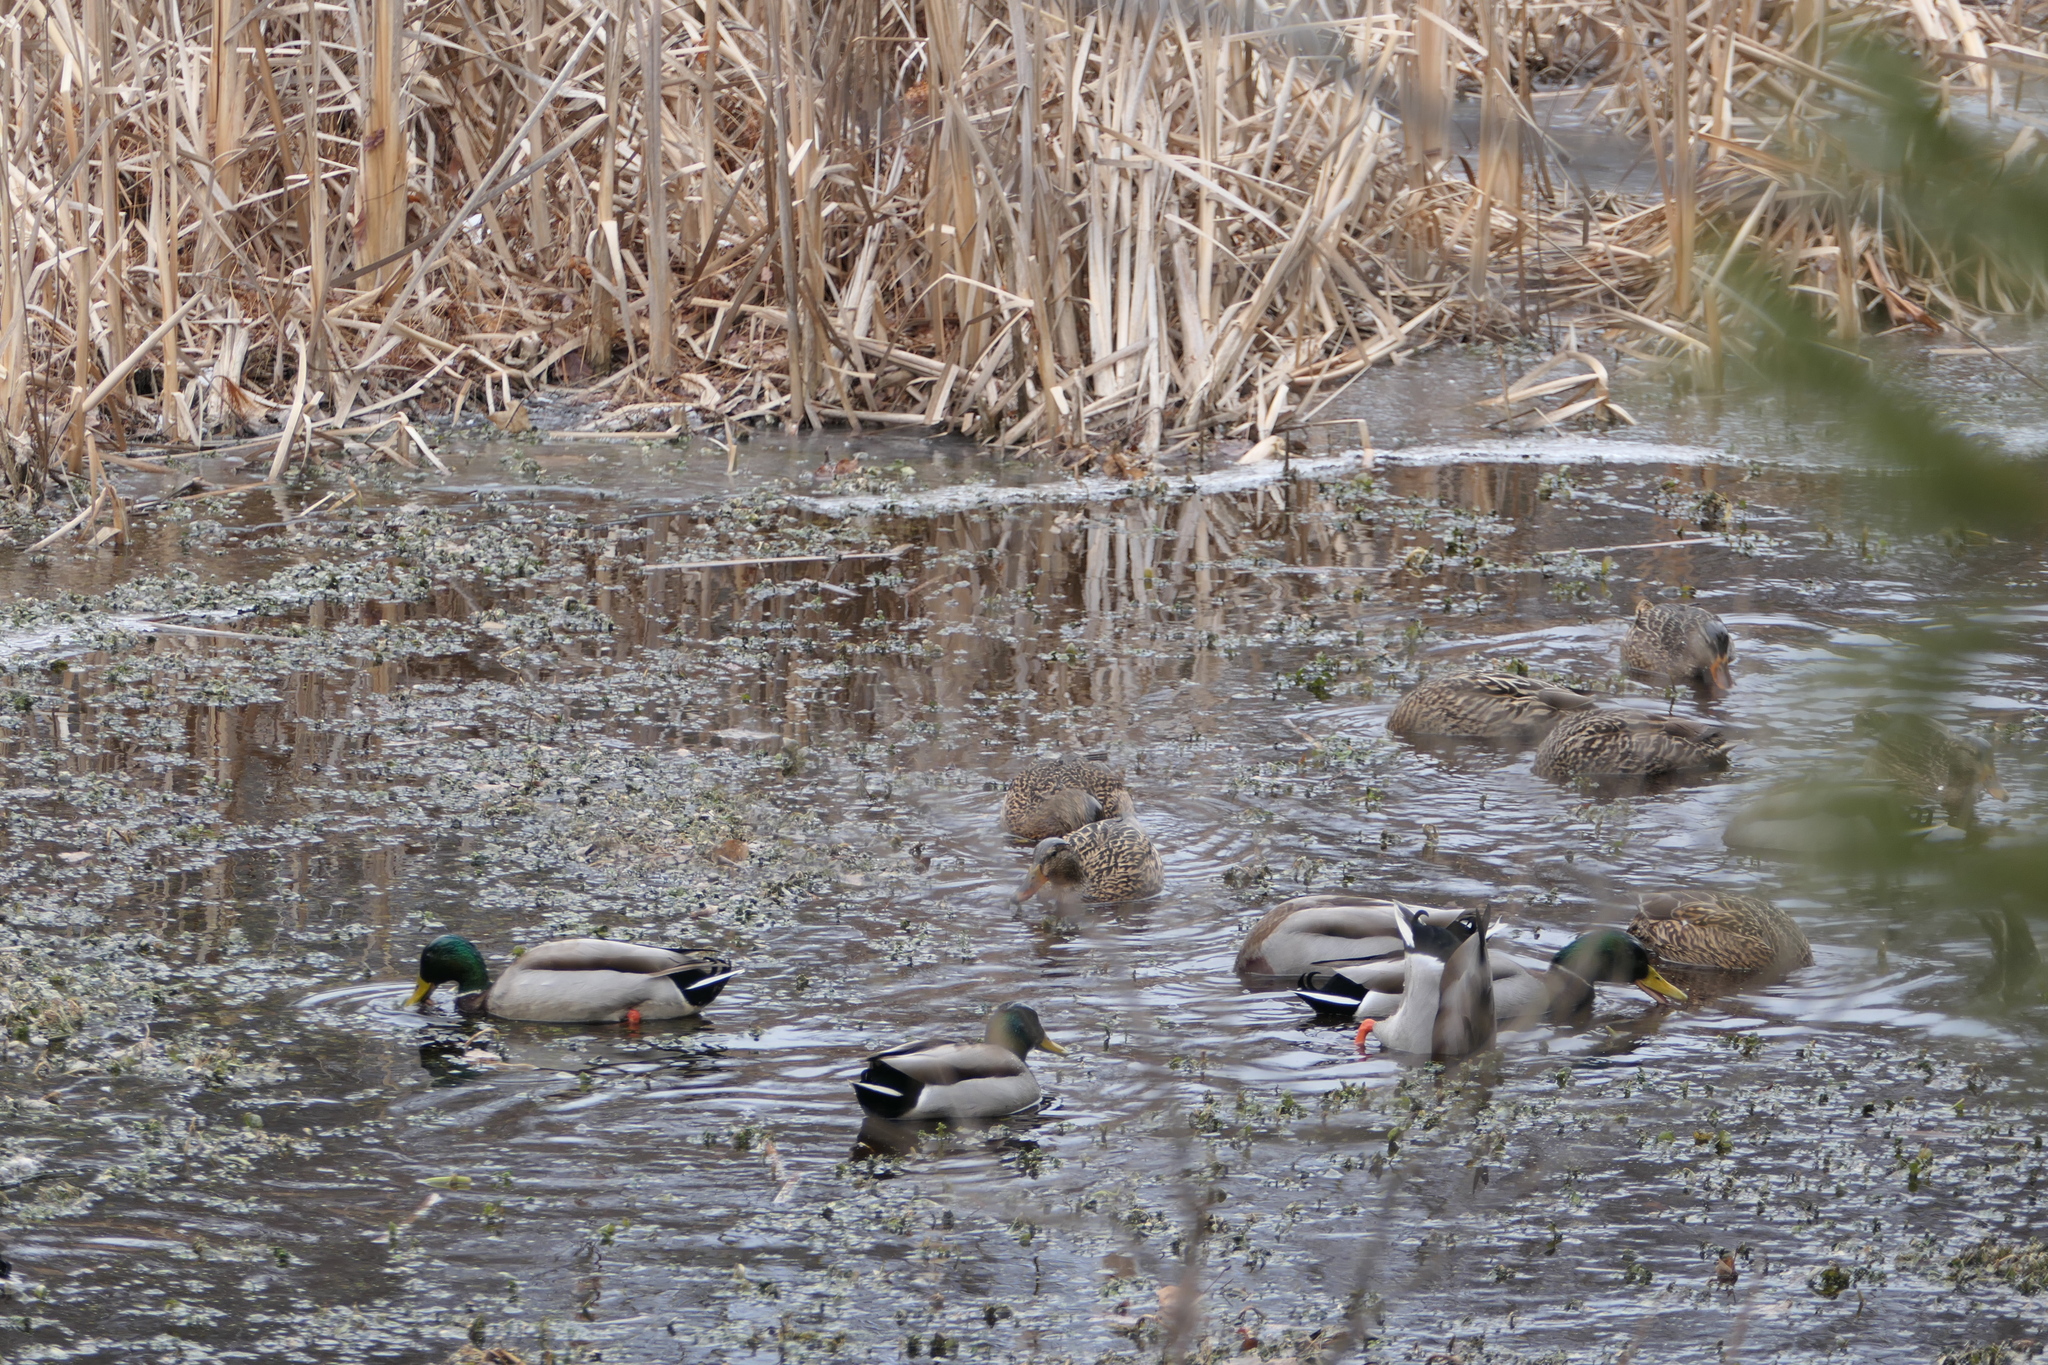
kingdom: Animalia
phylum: Chordata
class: Aves
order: Anseriformes
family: Anatidae
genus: Anas
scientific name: Anas platyrhynchos
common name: Mallard
